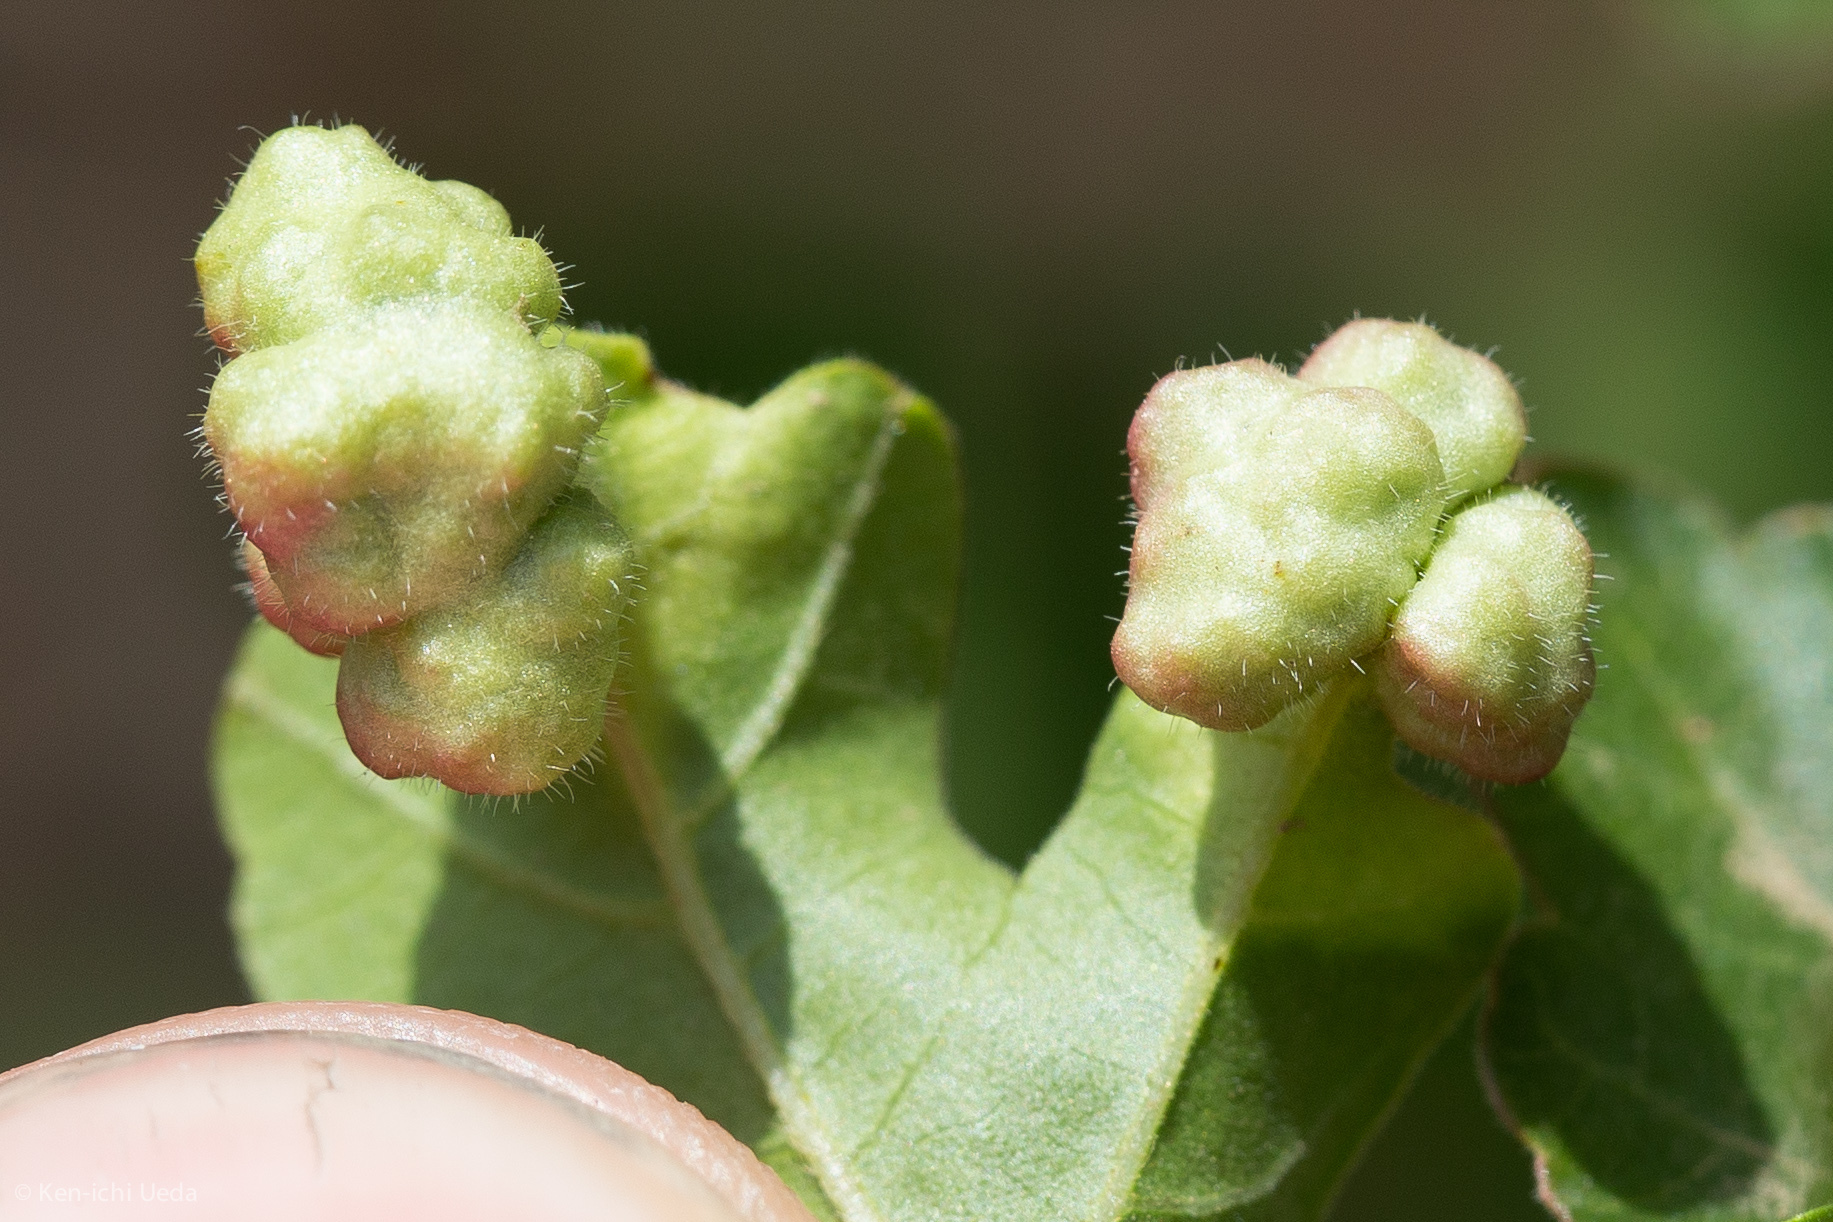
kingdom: Animalia
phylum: Arthropoda
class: Arachnida
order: Trombidiformes
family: Eriophyidae
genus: Aculops
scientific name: Aculops
